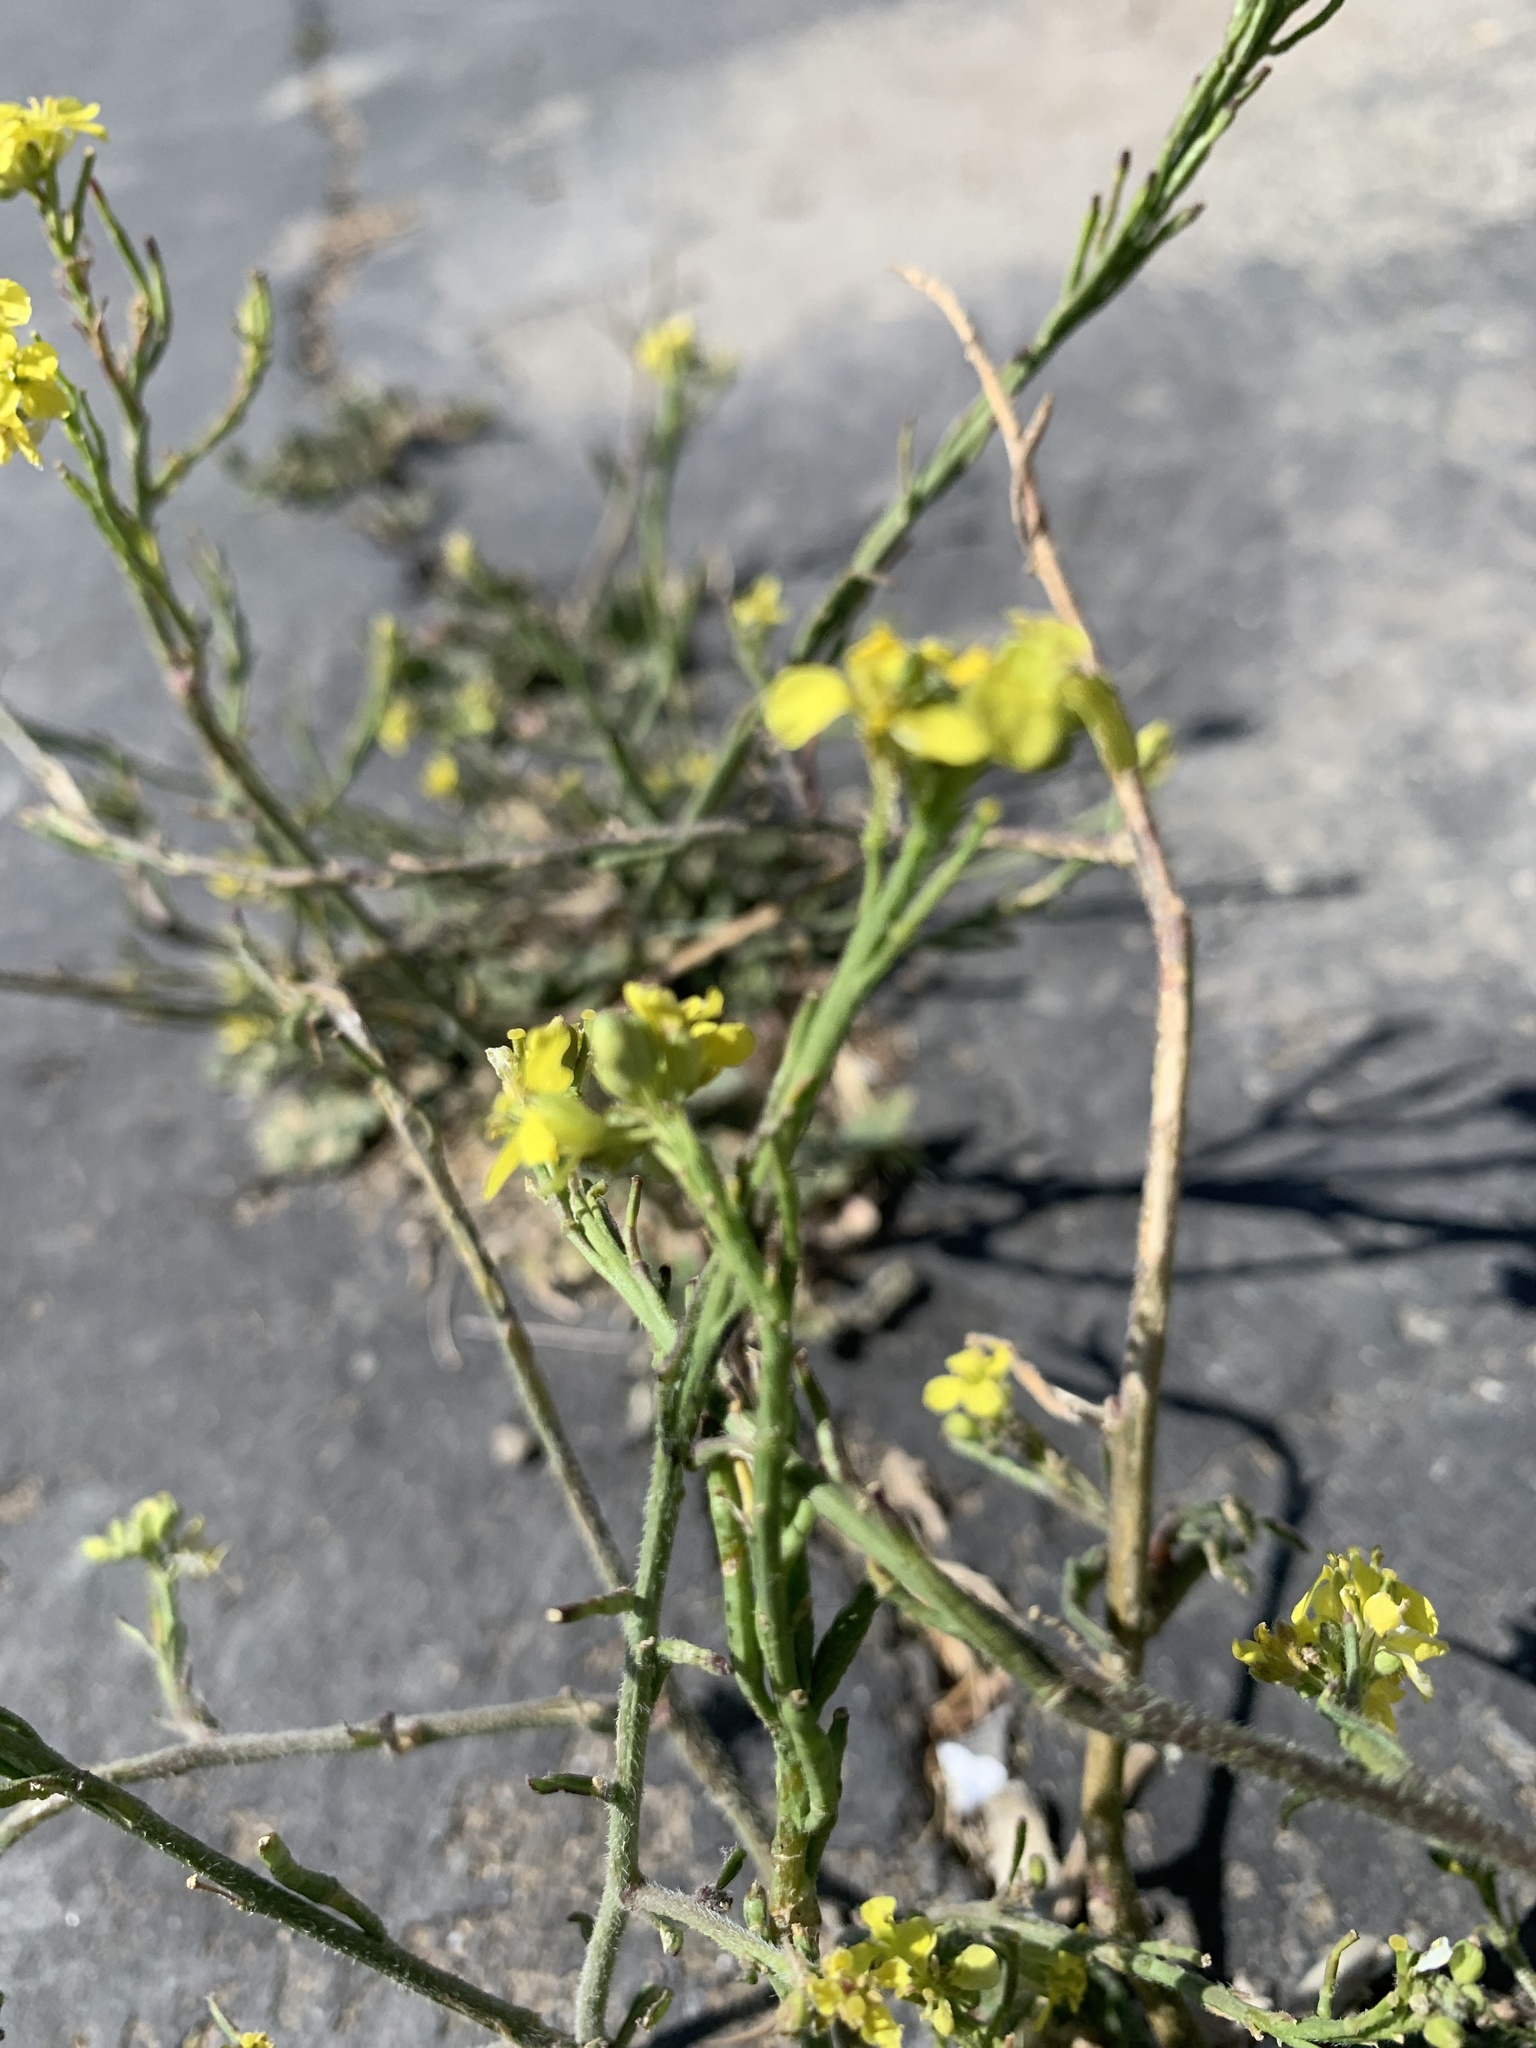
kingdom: Plantae
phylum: Tracheophyta
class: Magnoliopsida
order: Brassicales
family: Brassicaceae
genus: Hirschfeldia
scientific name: Hirschfeldia incana
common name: Hoary mustard
